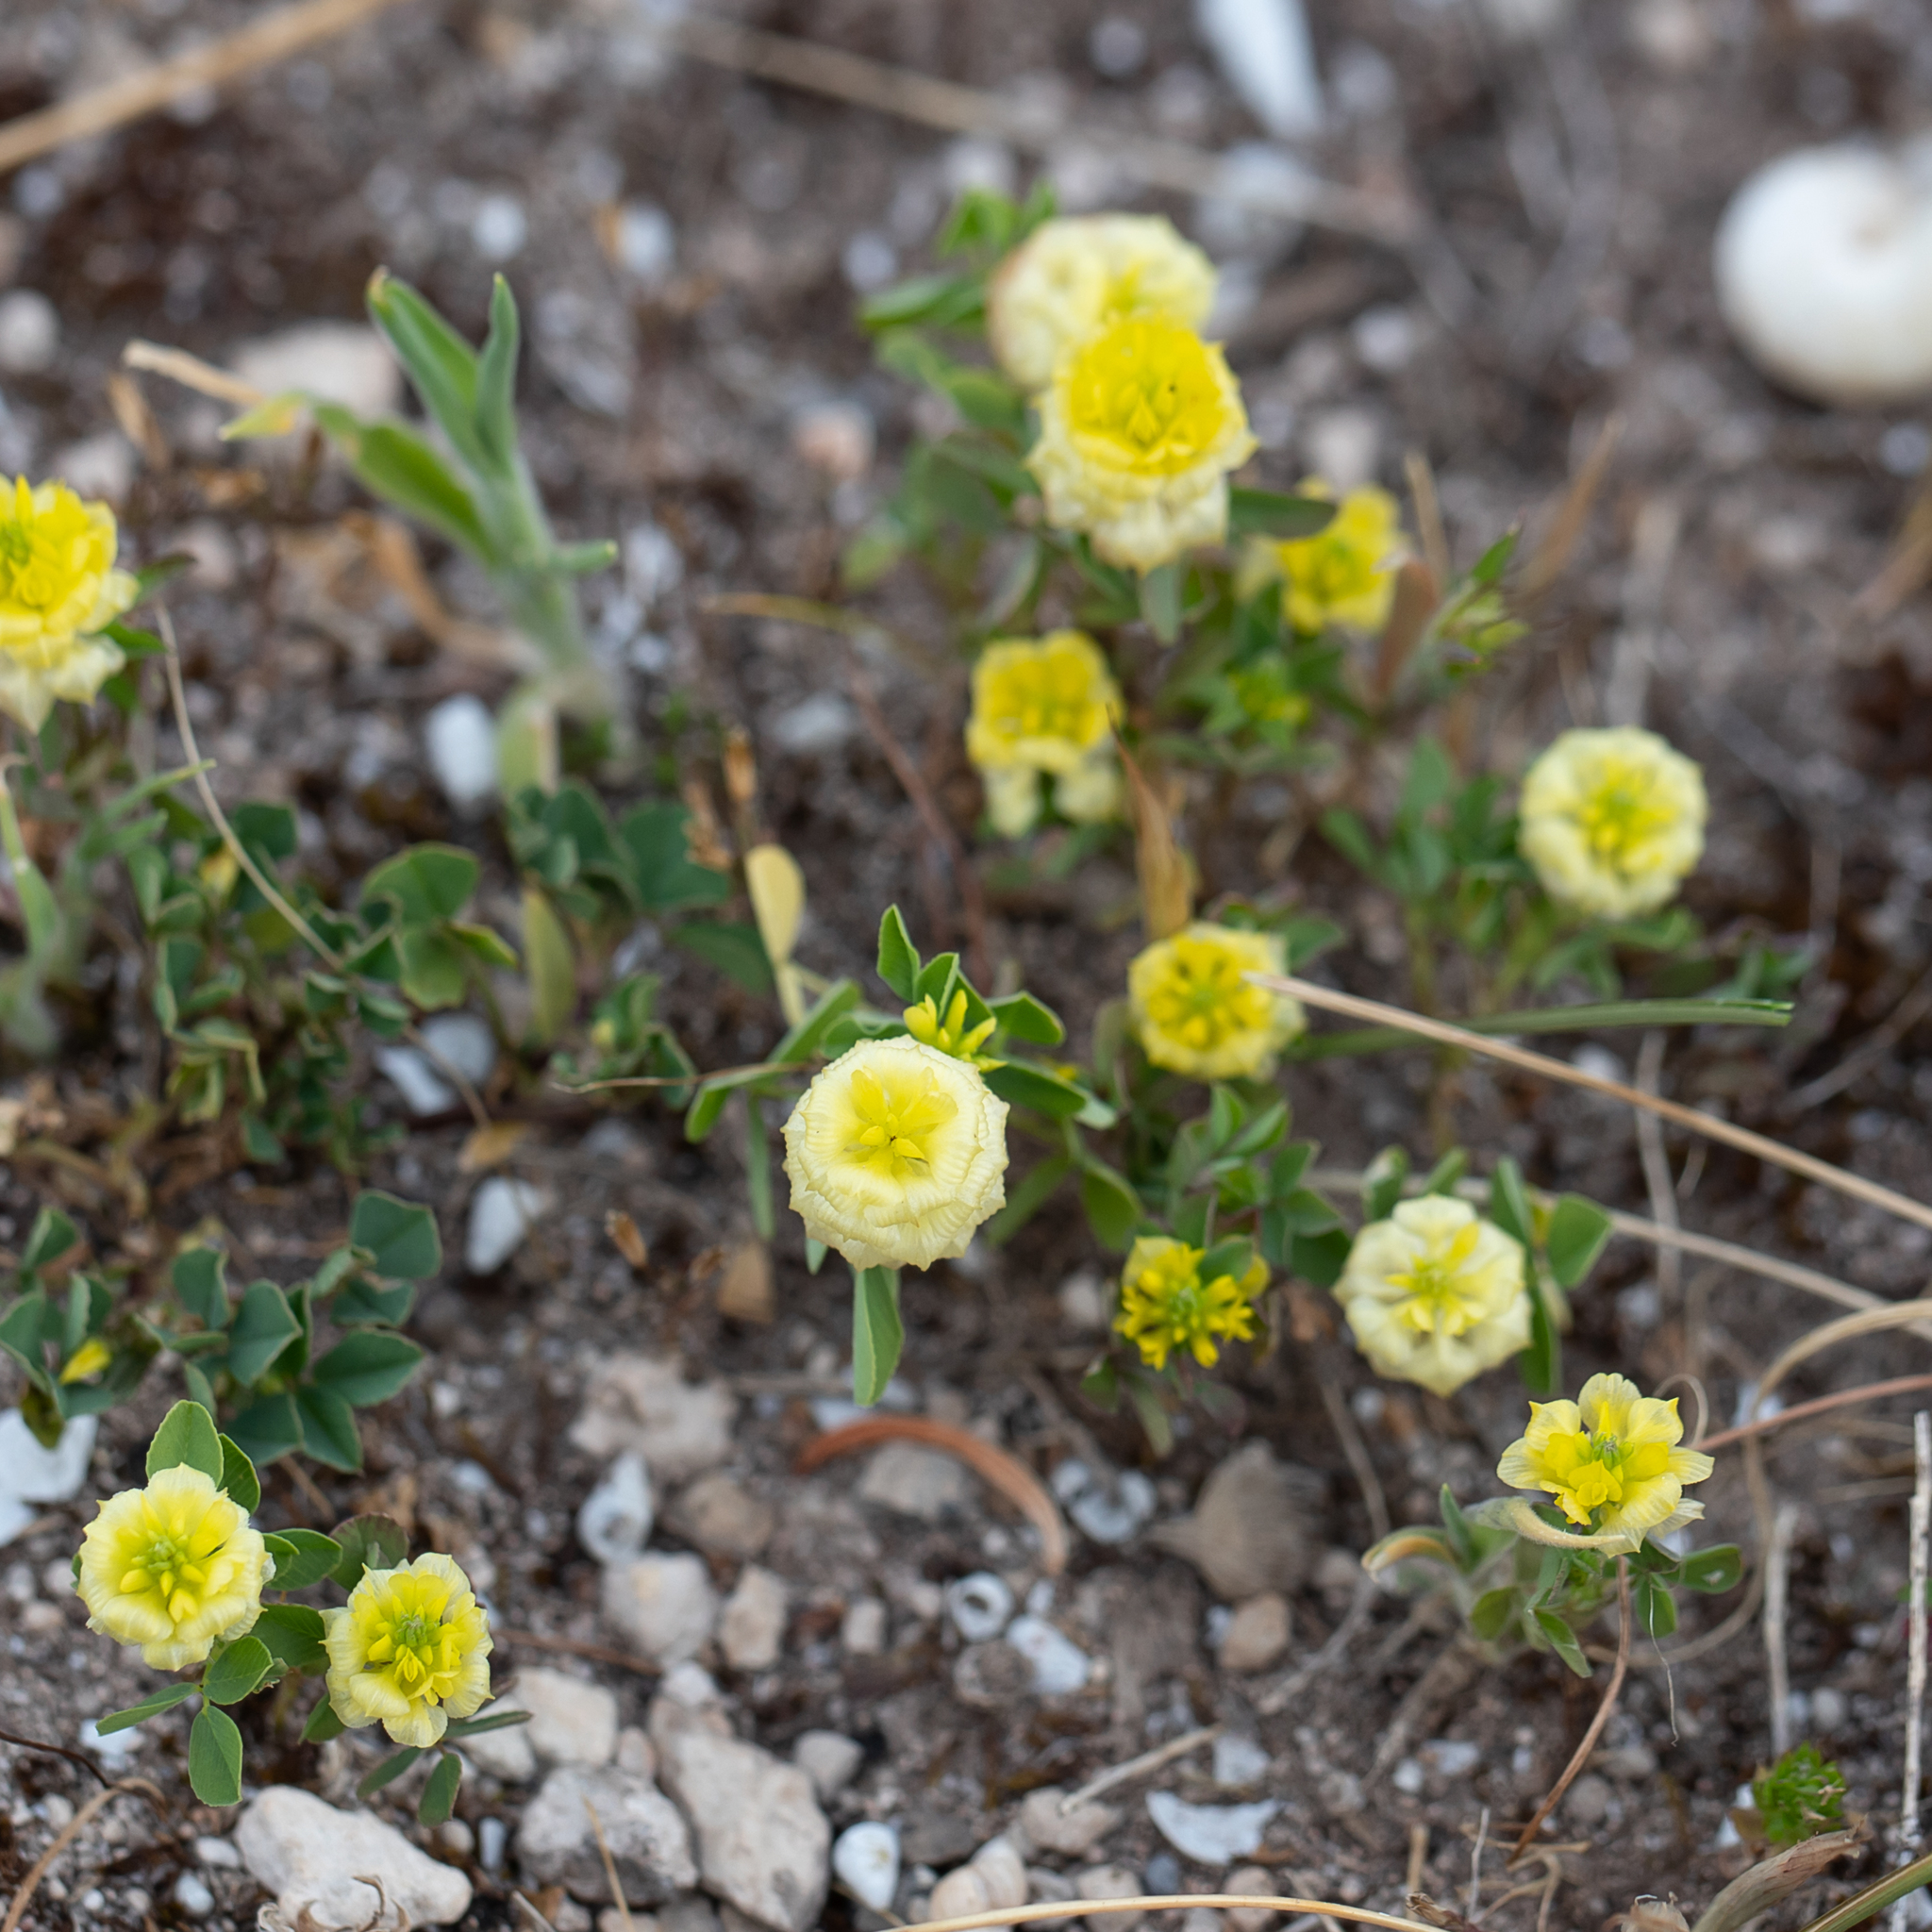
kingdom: Plantae
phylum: Tracheophyta
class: Magnoliopsida
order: Fabales
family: Fabaceae
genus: Trifolium
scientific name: Trifolium campestre
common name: Field clover
